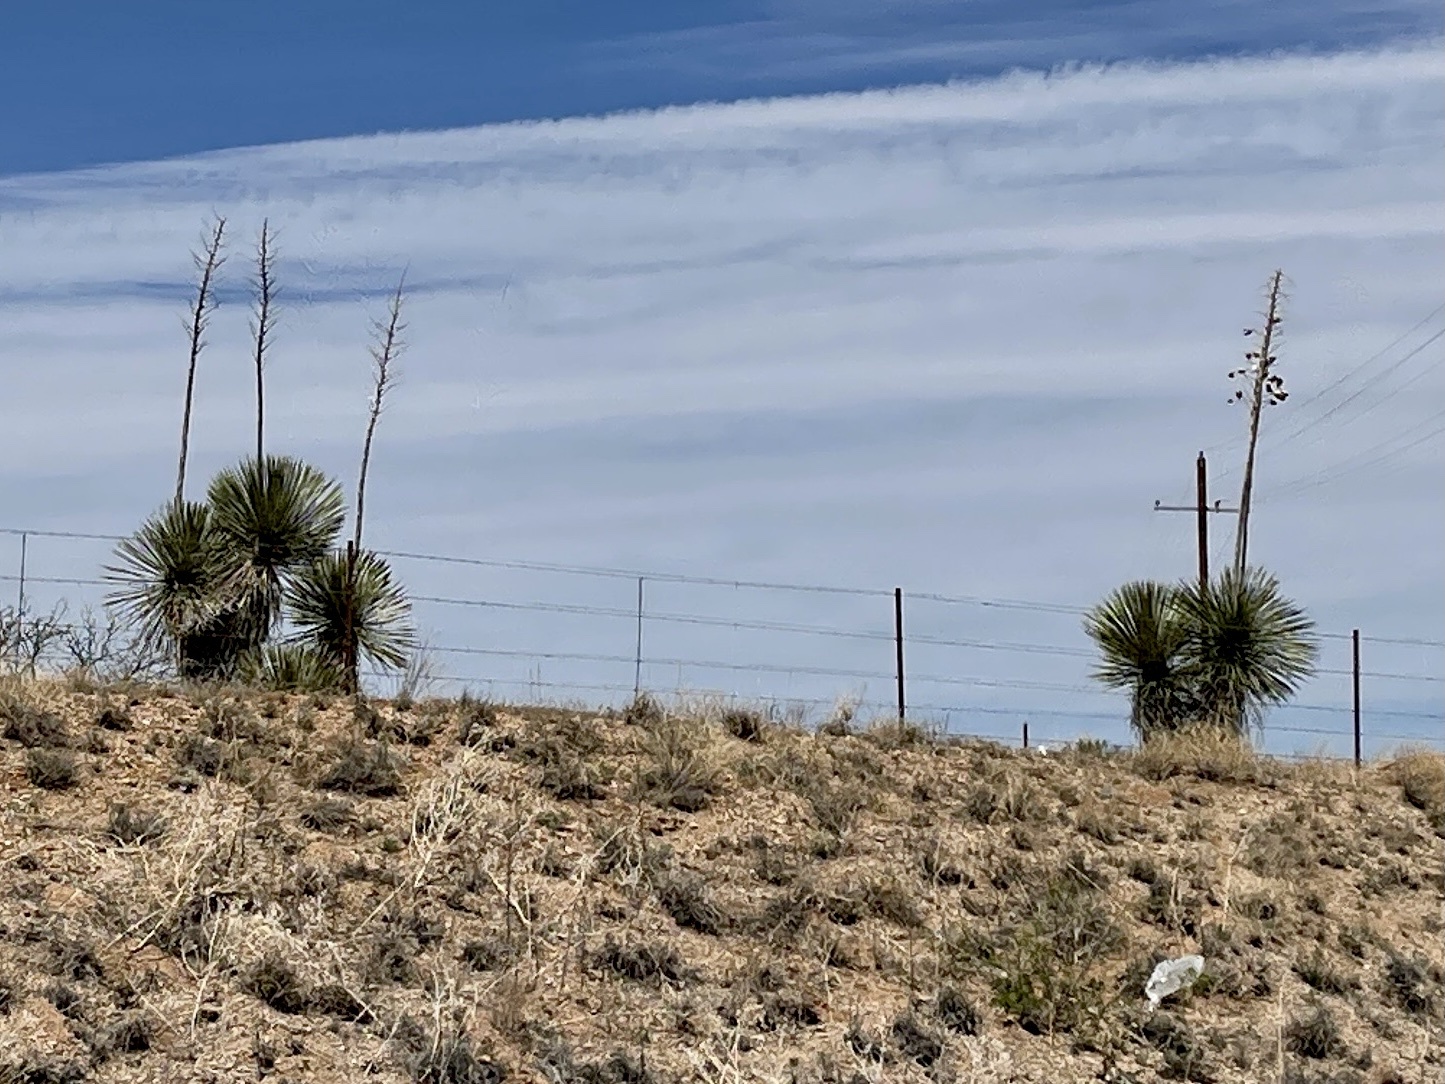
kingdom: Plantae
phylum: Tracheophyta
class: Liliopsida
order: Asparagales
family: Asparagaceae
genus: Yucca
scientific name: Yucca elata
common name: Palmella
